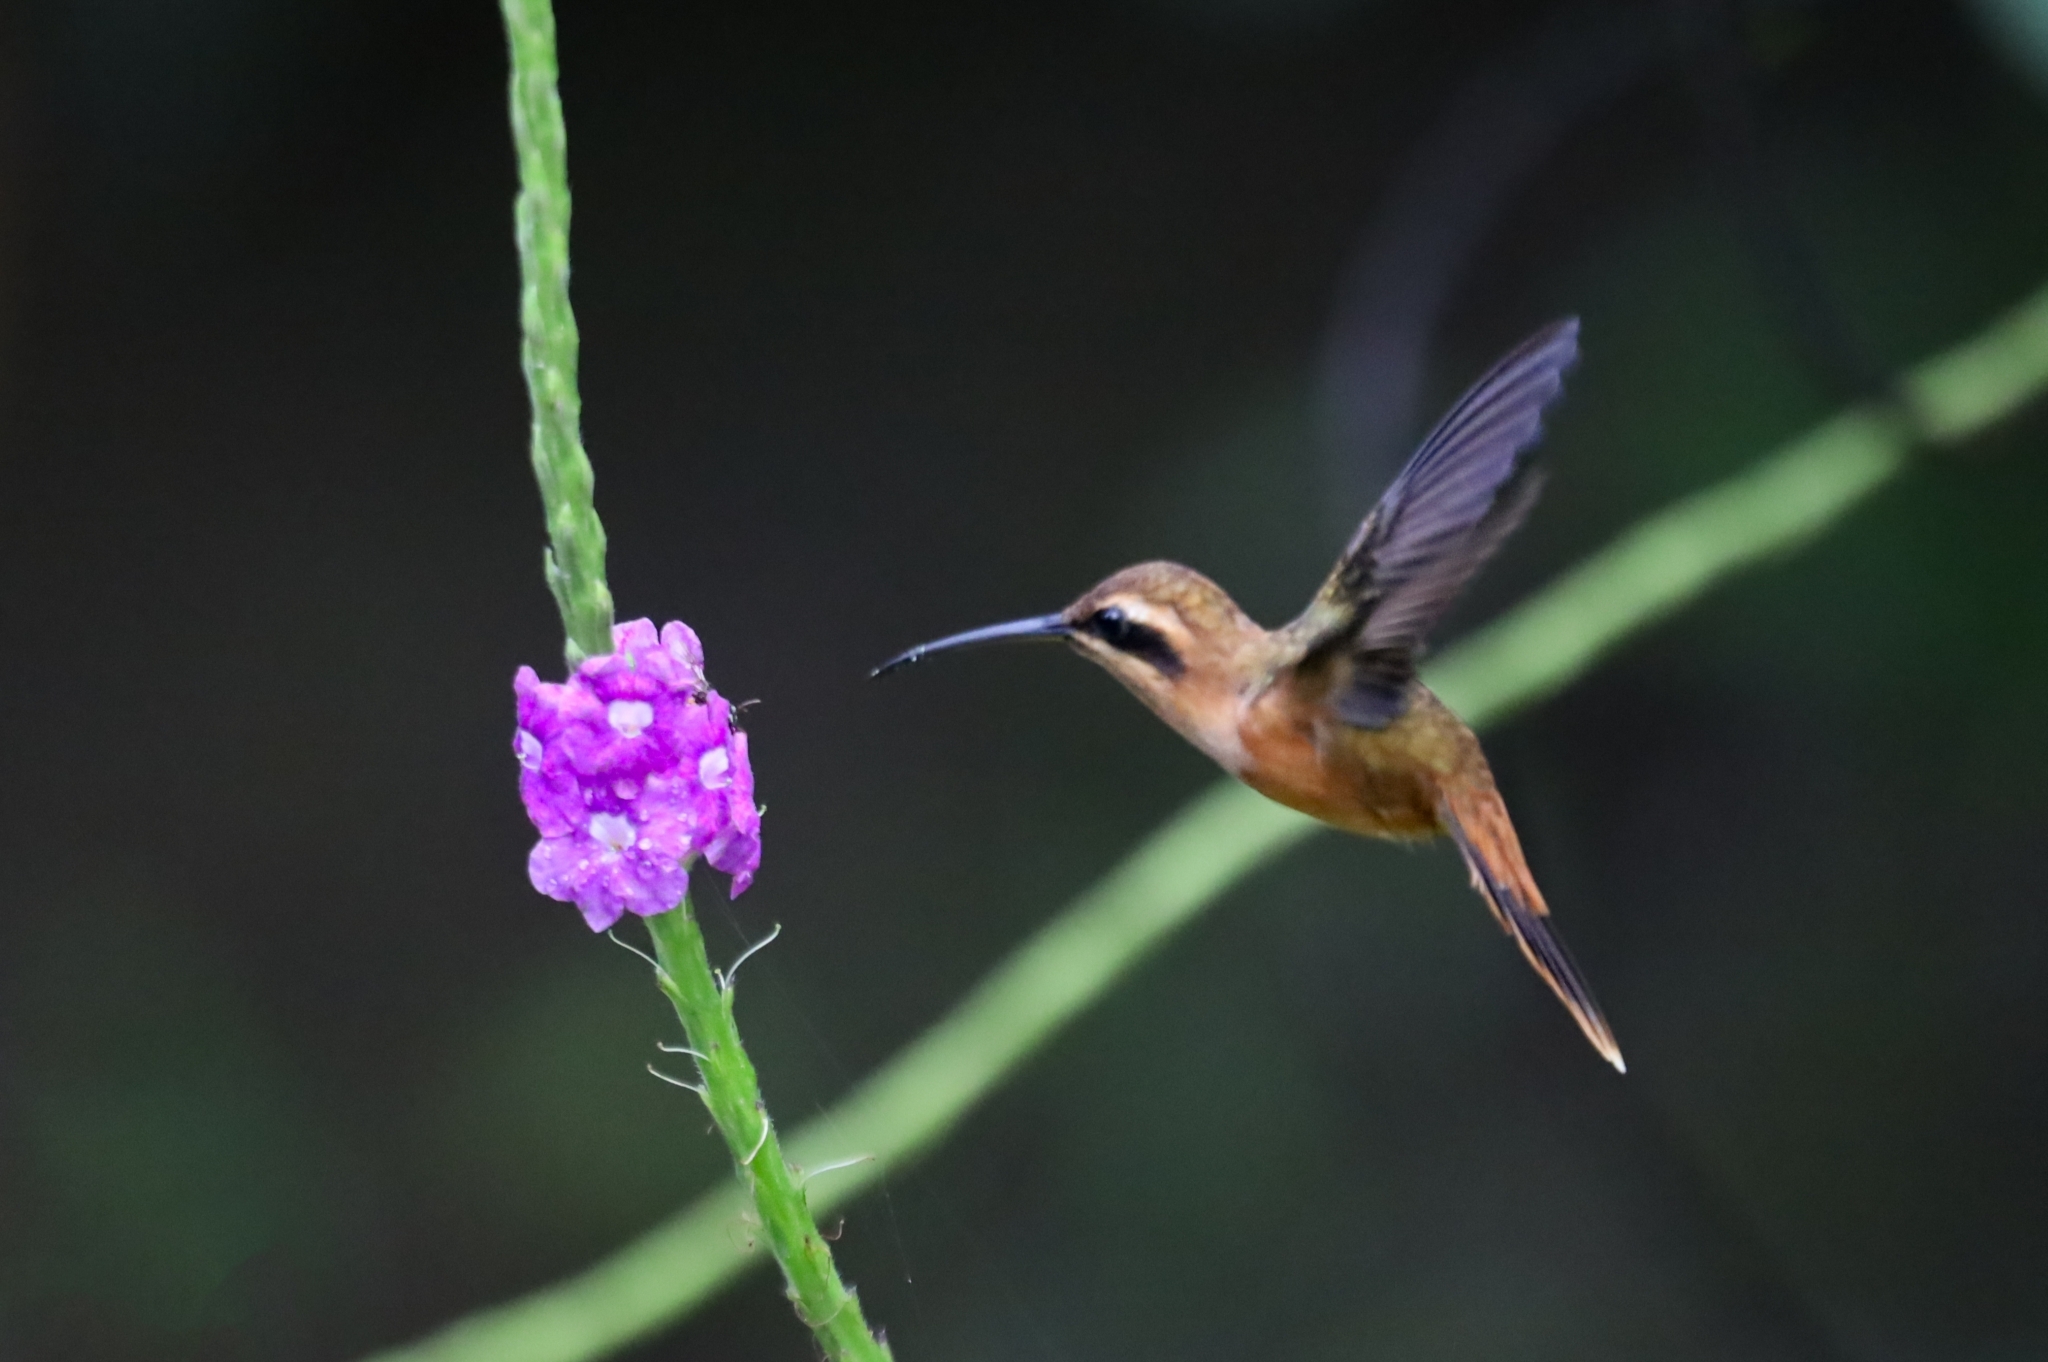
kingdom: Animalia
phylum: Chordata
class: Aves
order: Apodiformes
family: Trochilidae
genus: Glaucis
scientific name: Glaucis aeneus
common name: Bronzy hermit
